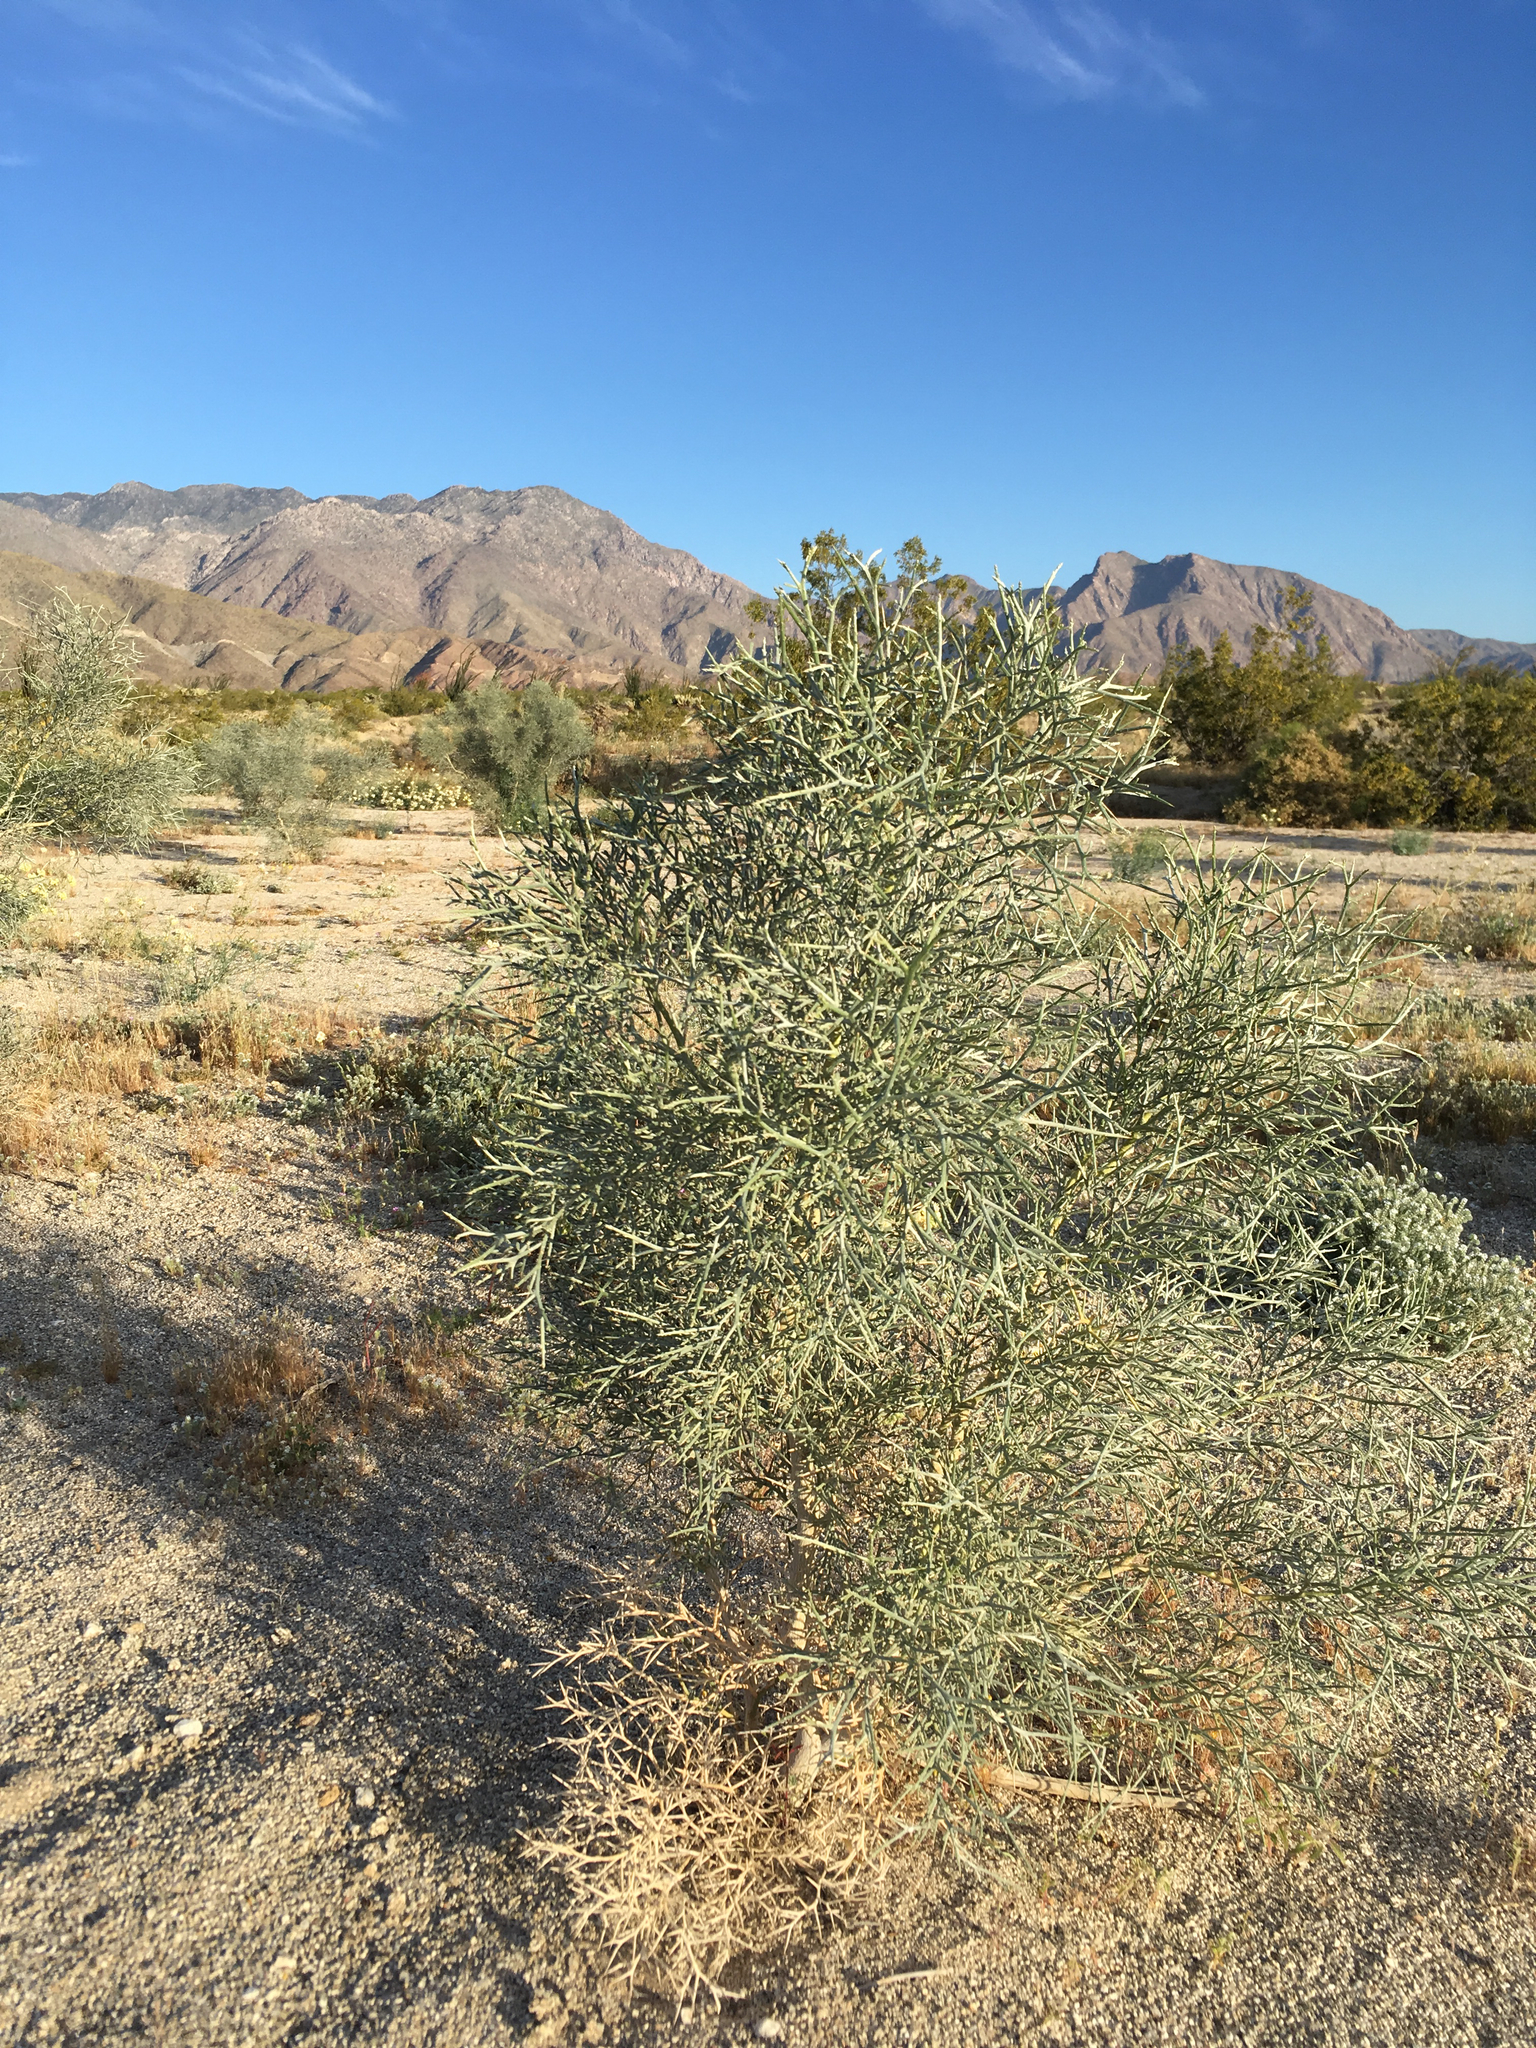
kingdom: Plantae
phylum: Tracheophyta
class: Magnoliopsida
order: Fabales
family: Fabaceae
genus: Psorothamnus
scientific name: Psorothamnus spinosus
